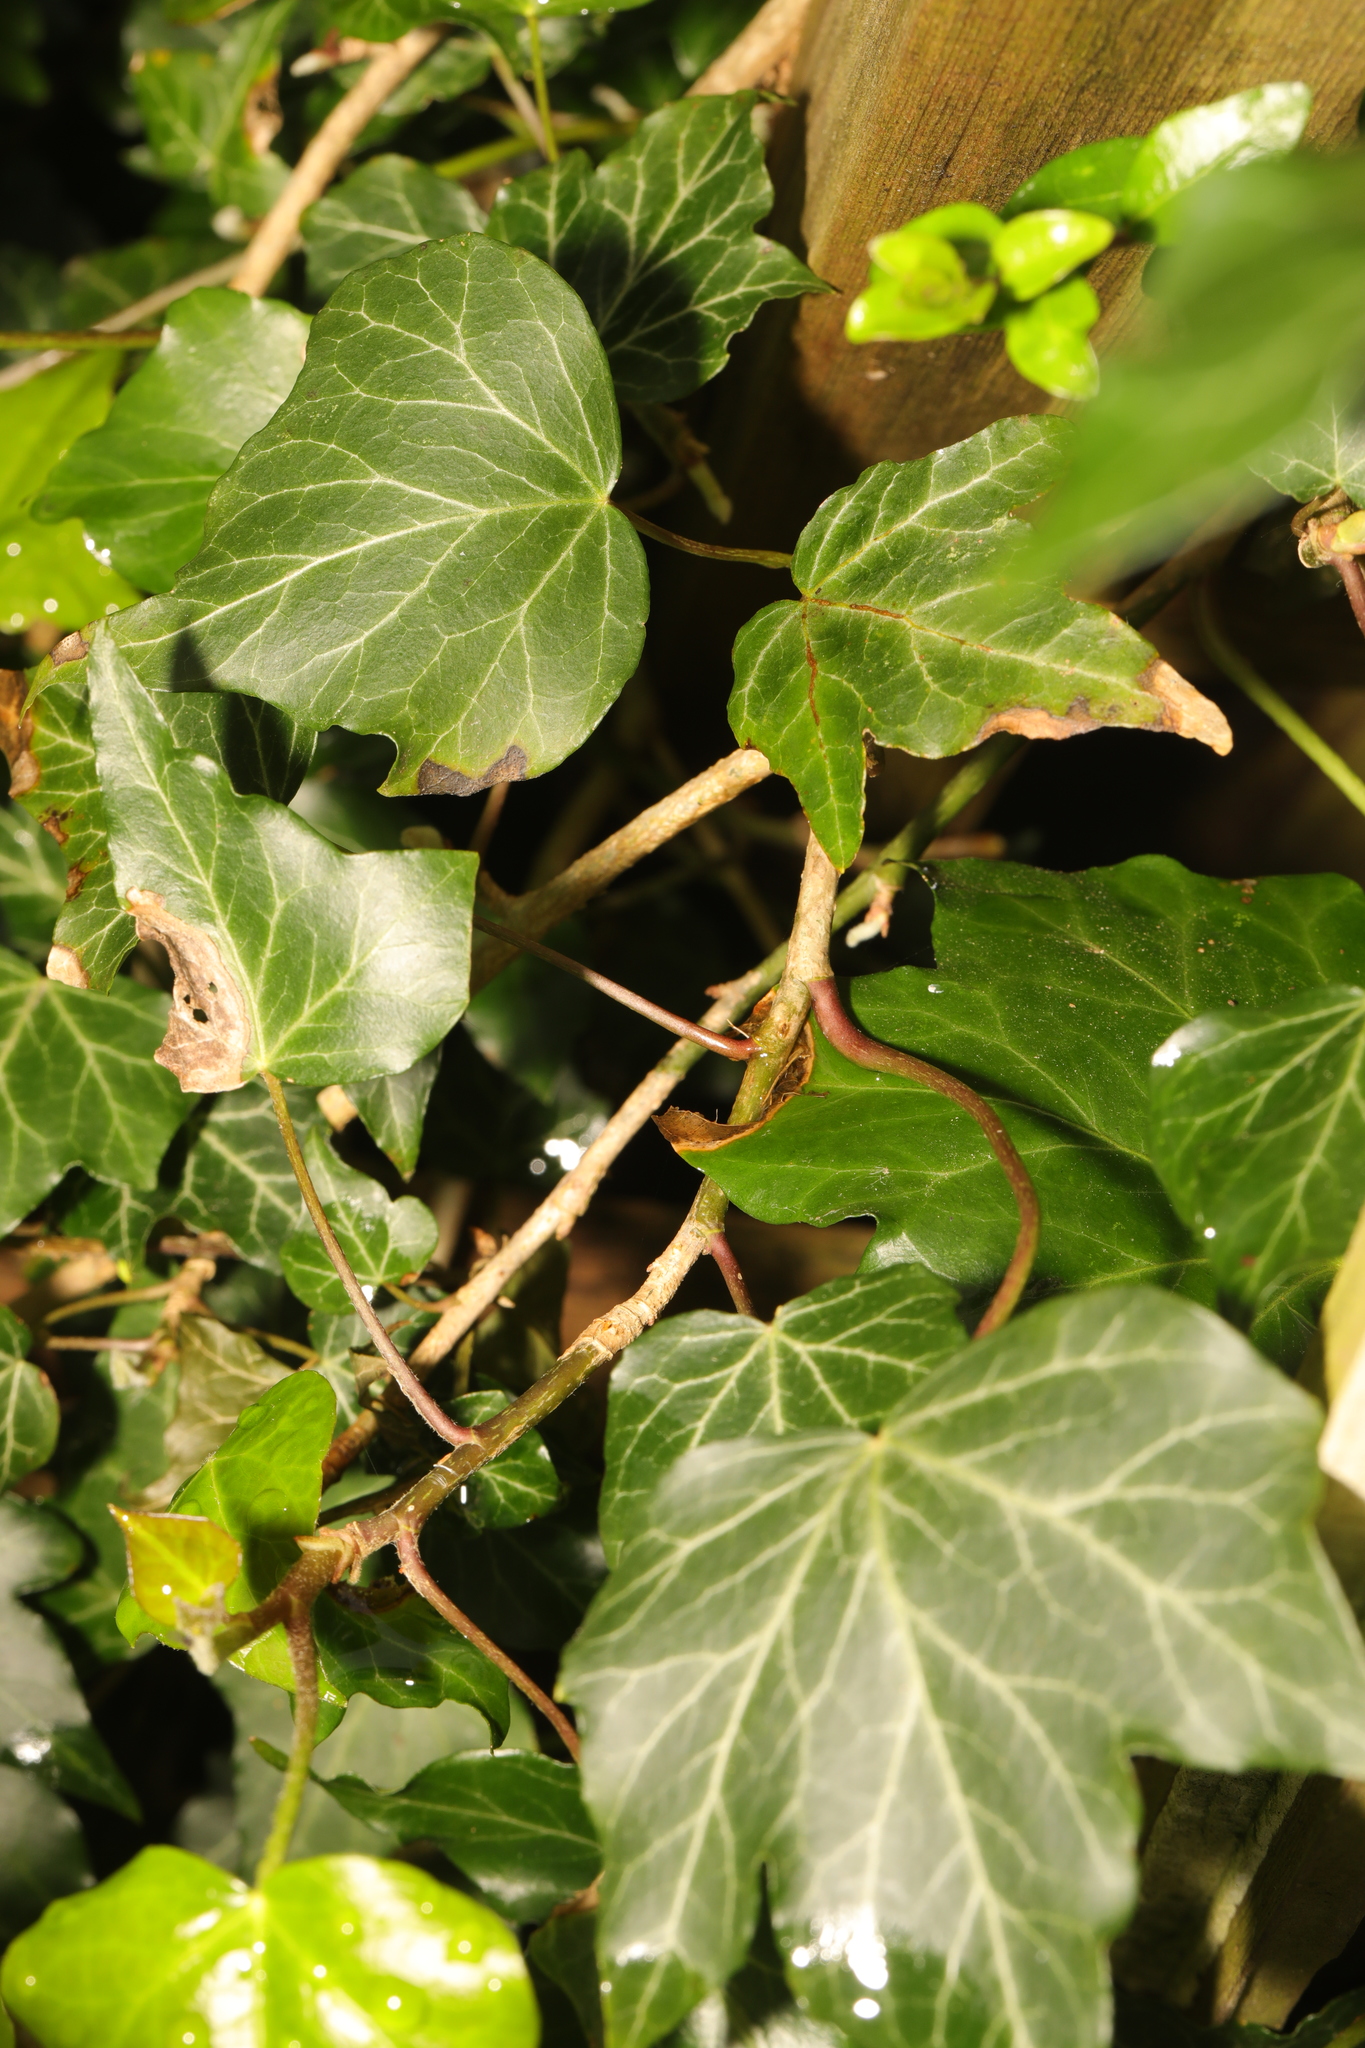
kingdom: Plantae
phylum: Tracheophyta
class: Magnoliopsida
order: Apiales
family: Araliaceae
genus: Hedera
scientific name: Hedera helix
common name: Ivy
